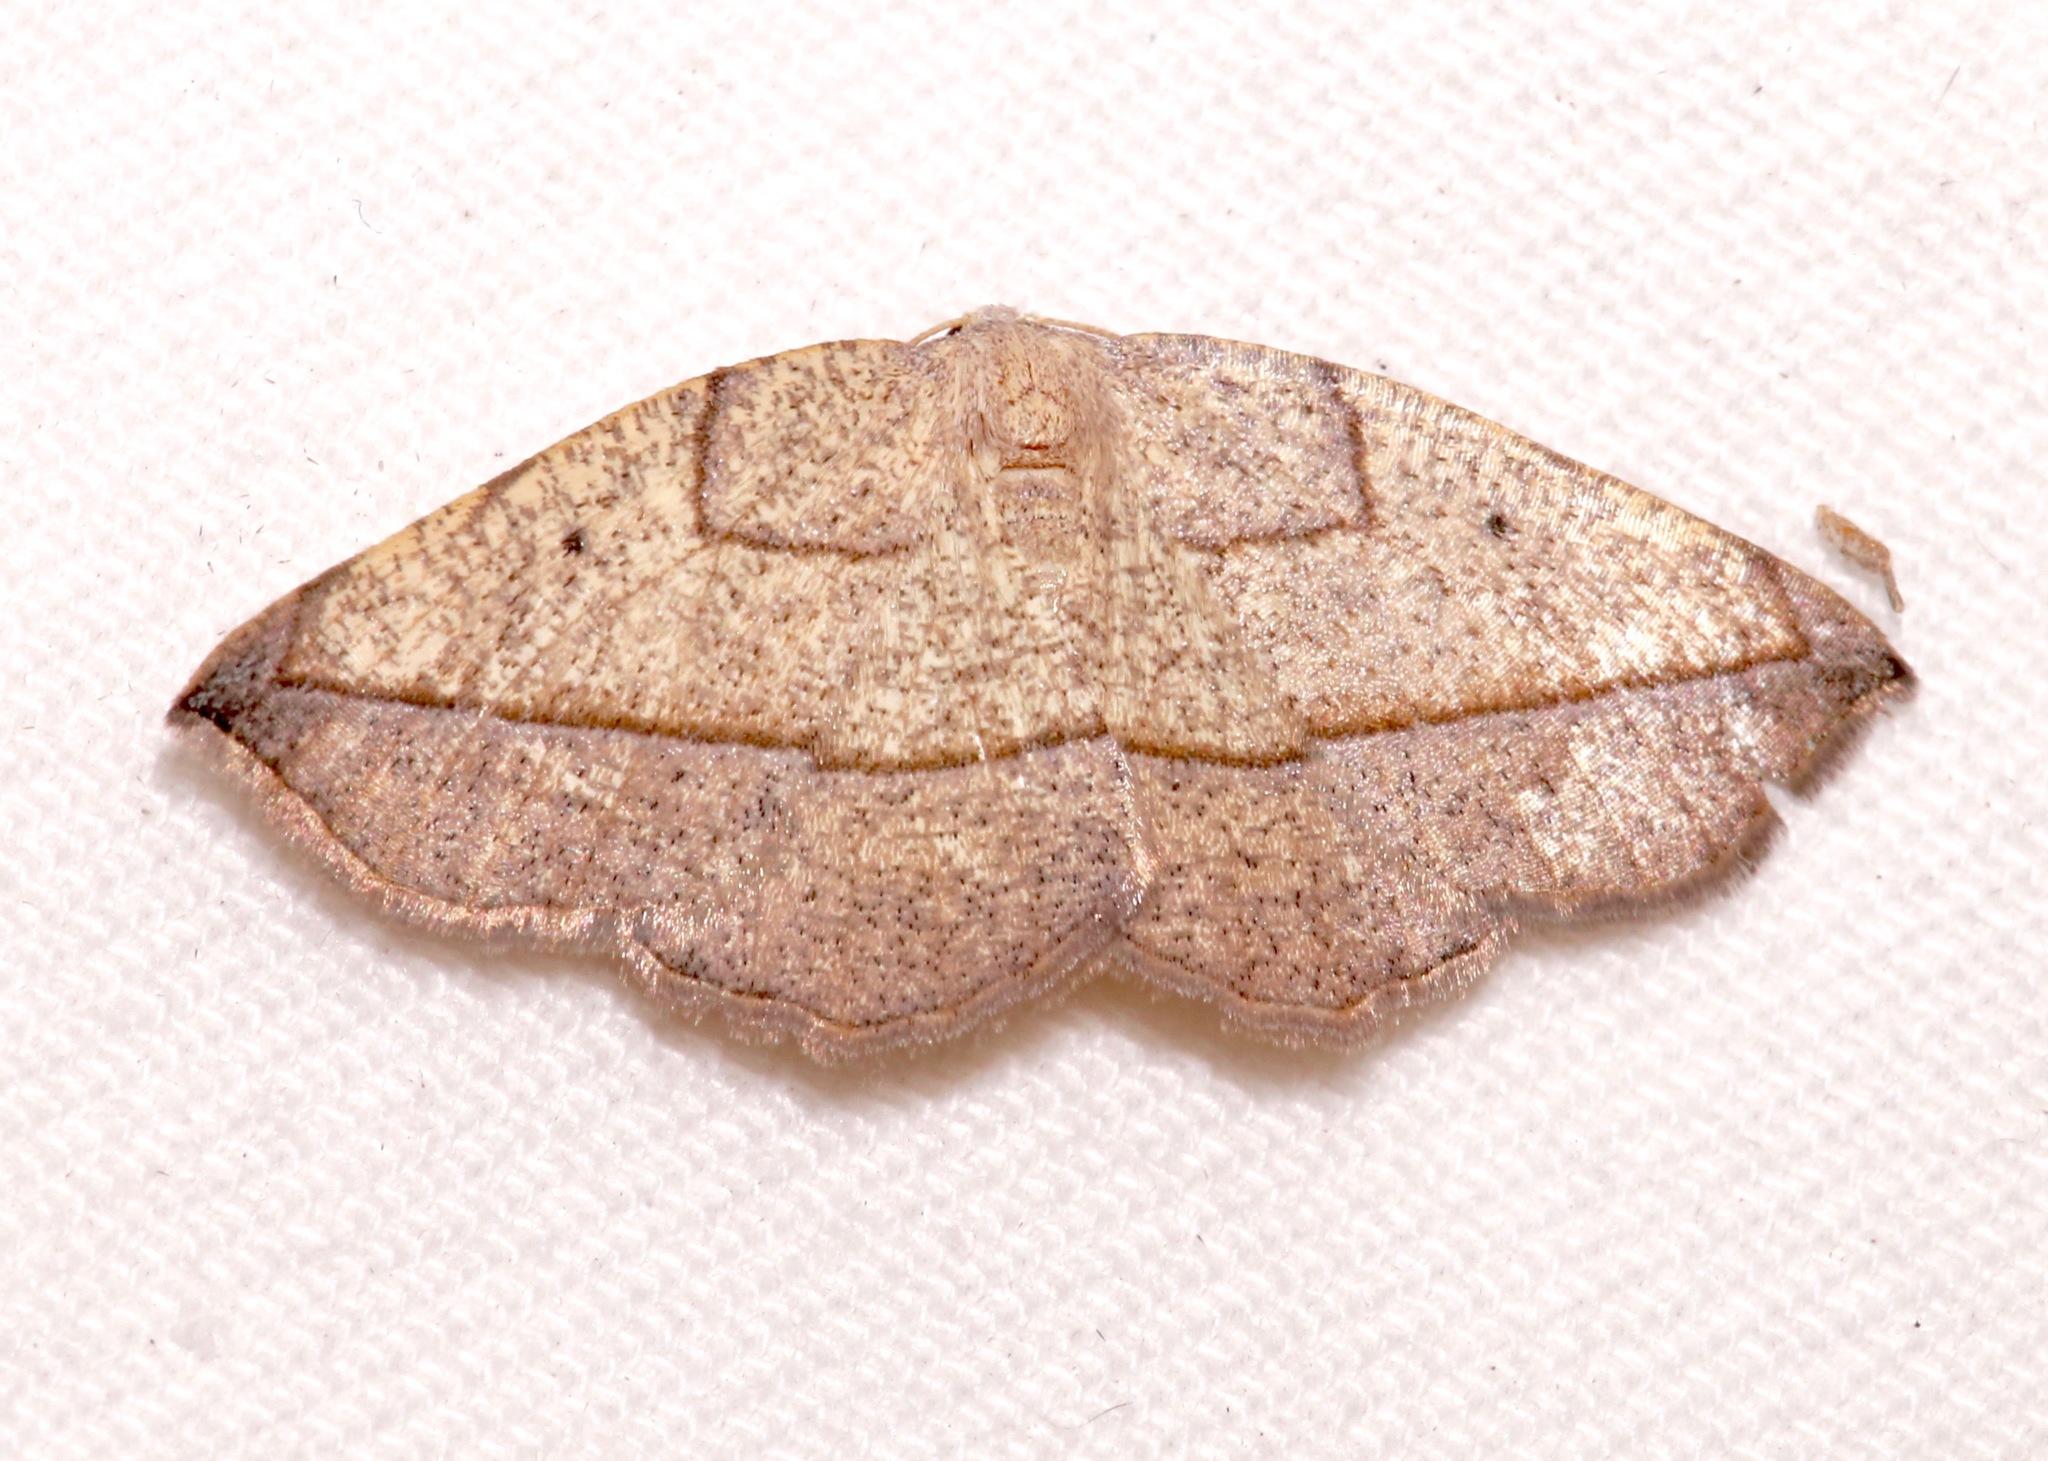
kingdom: Animalia
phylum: Arthropoda
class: Insecta
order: Lepidoptera
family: Geometridae
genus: Eusarca
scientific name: Eusarca geniculata
